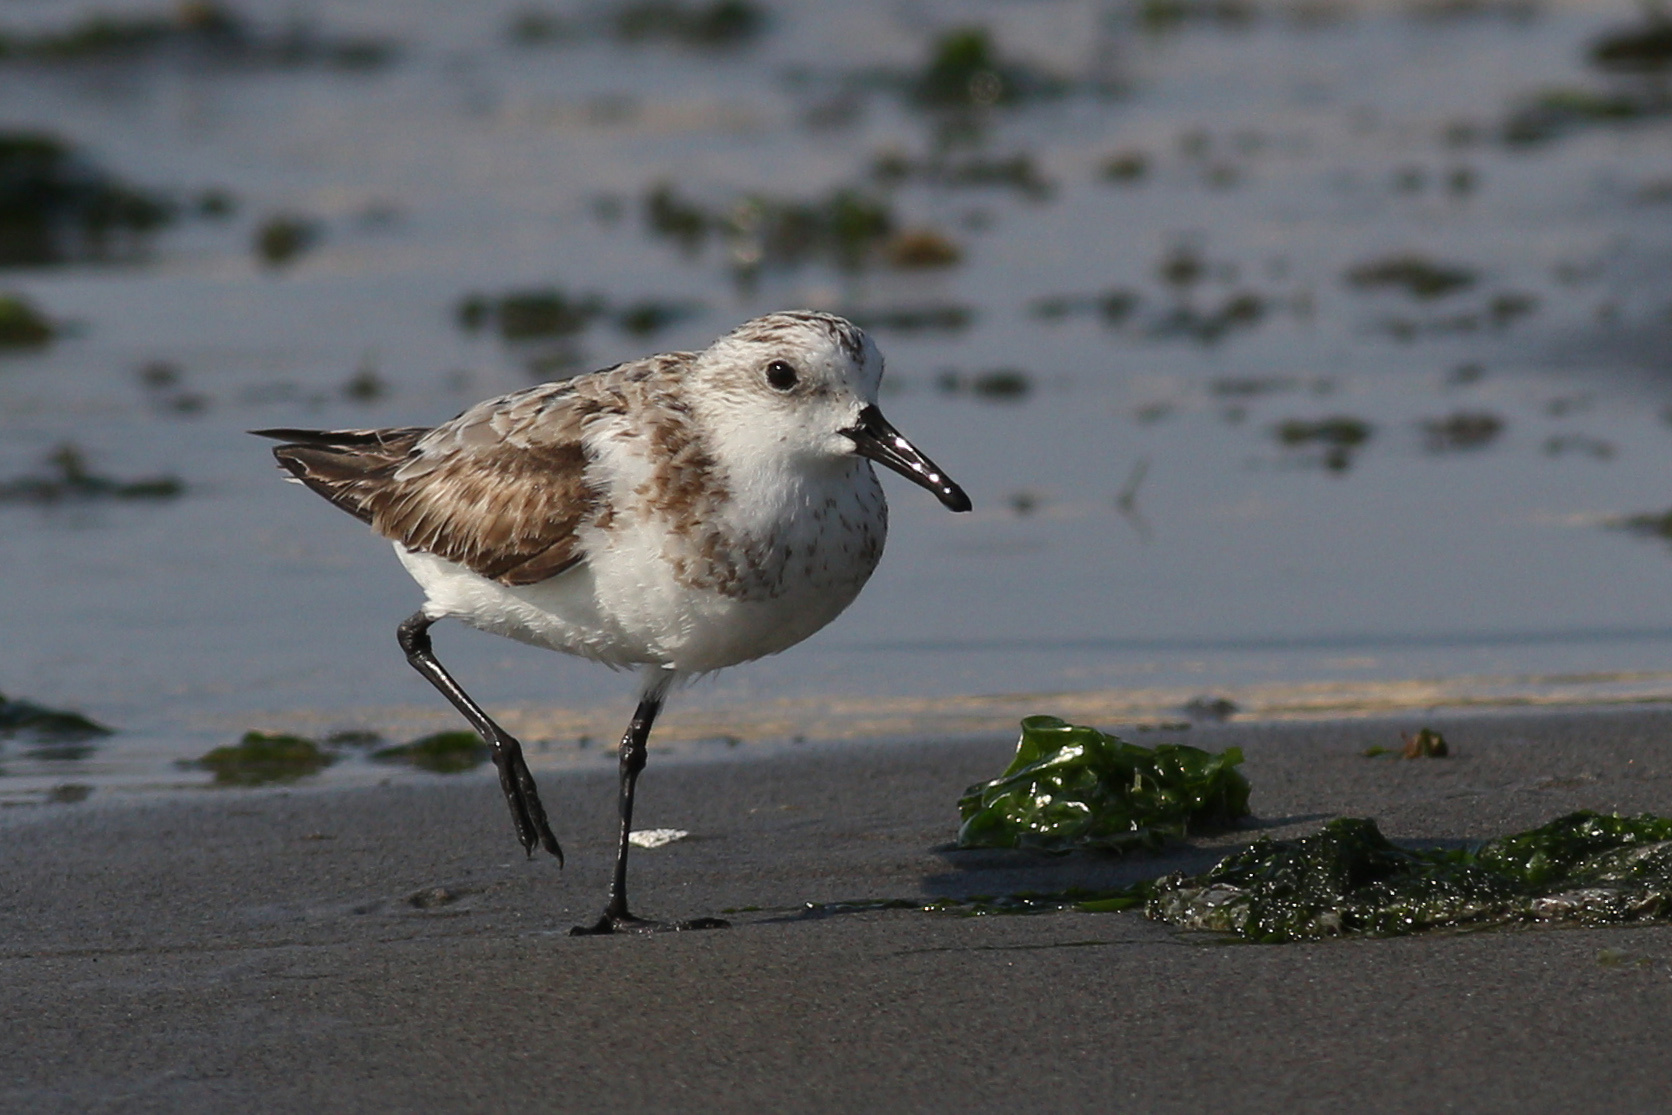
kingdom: Animalia
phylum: Chordata
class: Aves
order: Charadriiformes
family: Scolopacidae
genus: Calidris
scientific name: Calidris alba
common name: Sanderling
